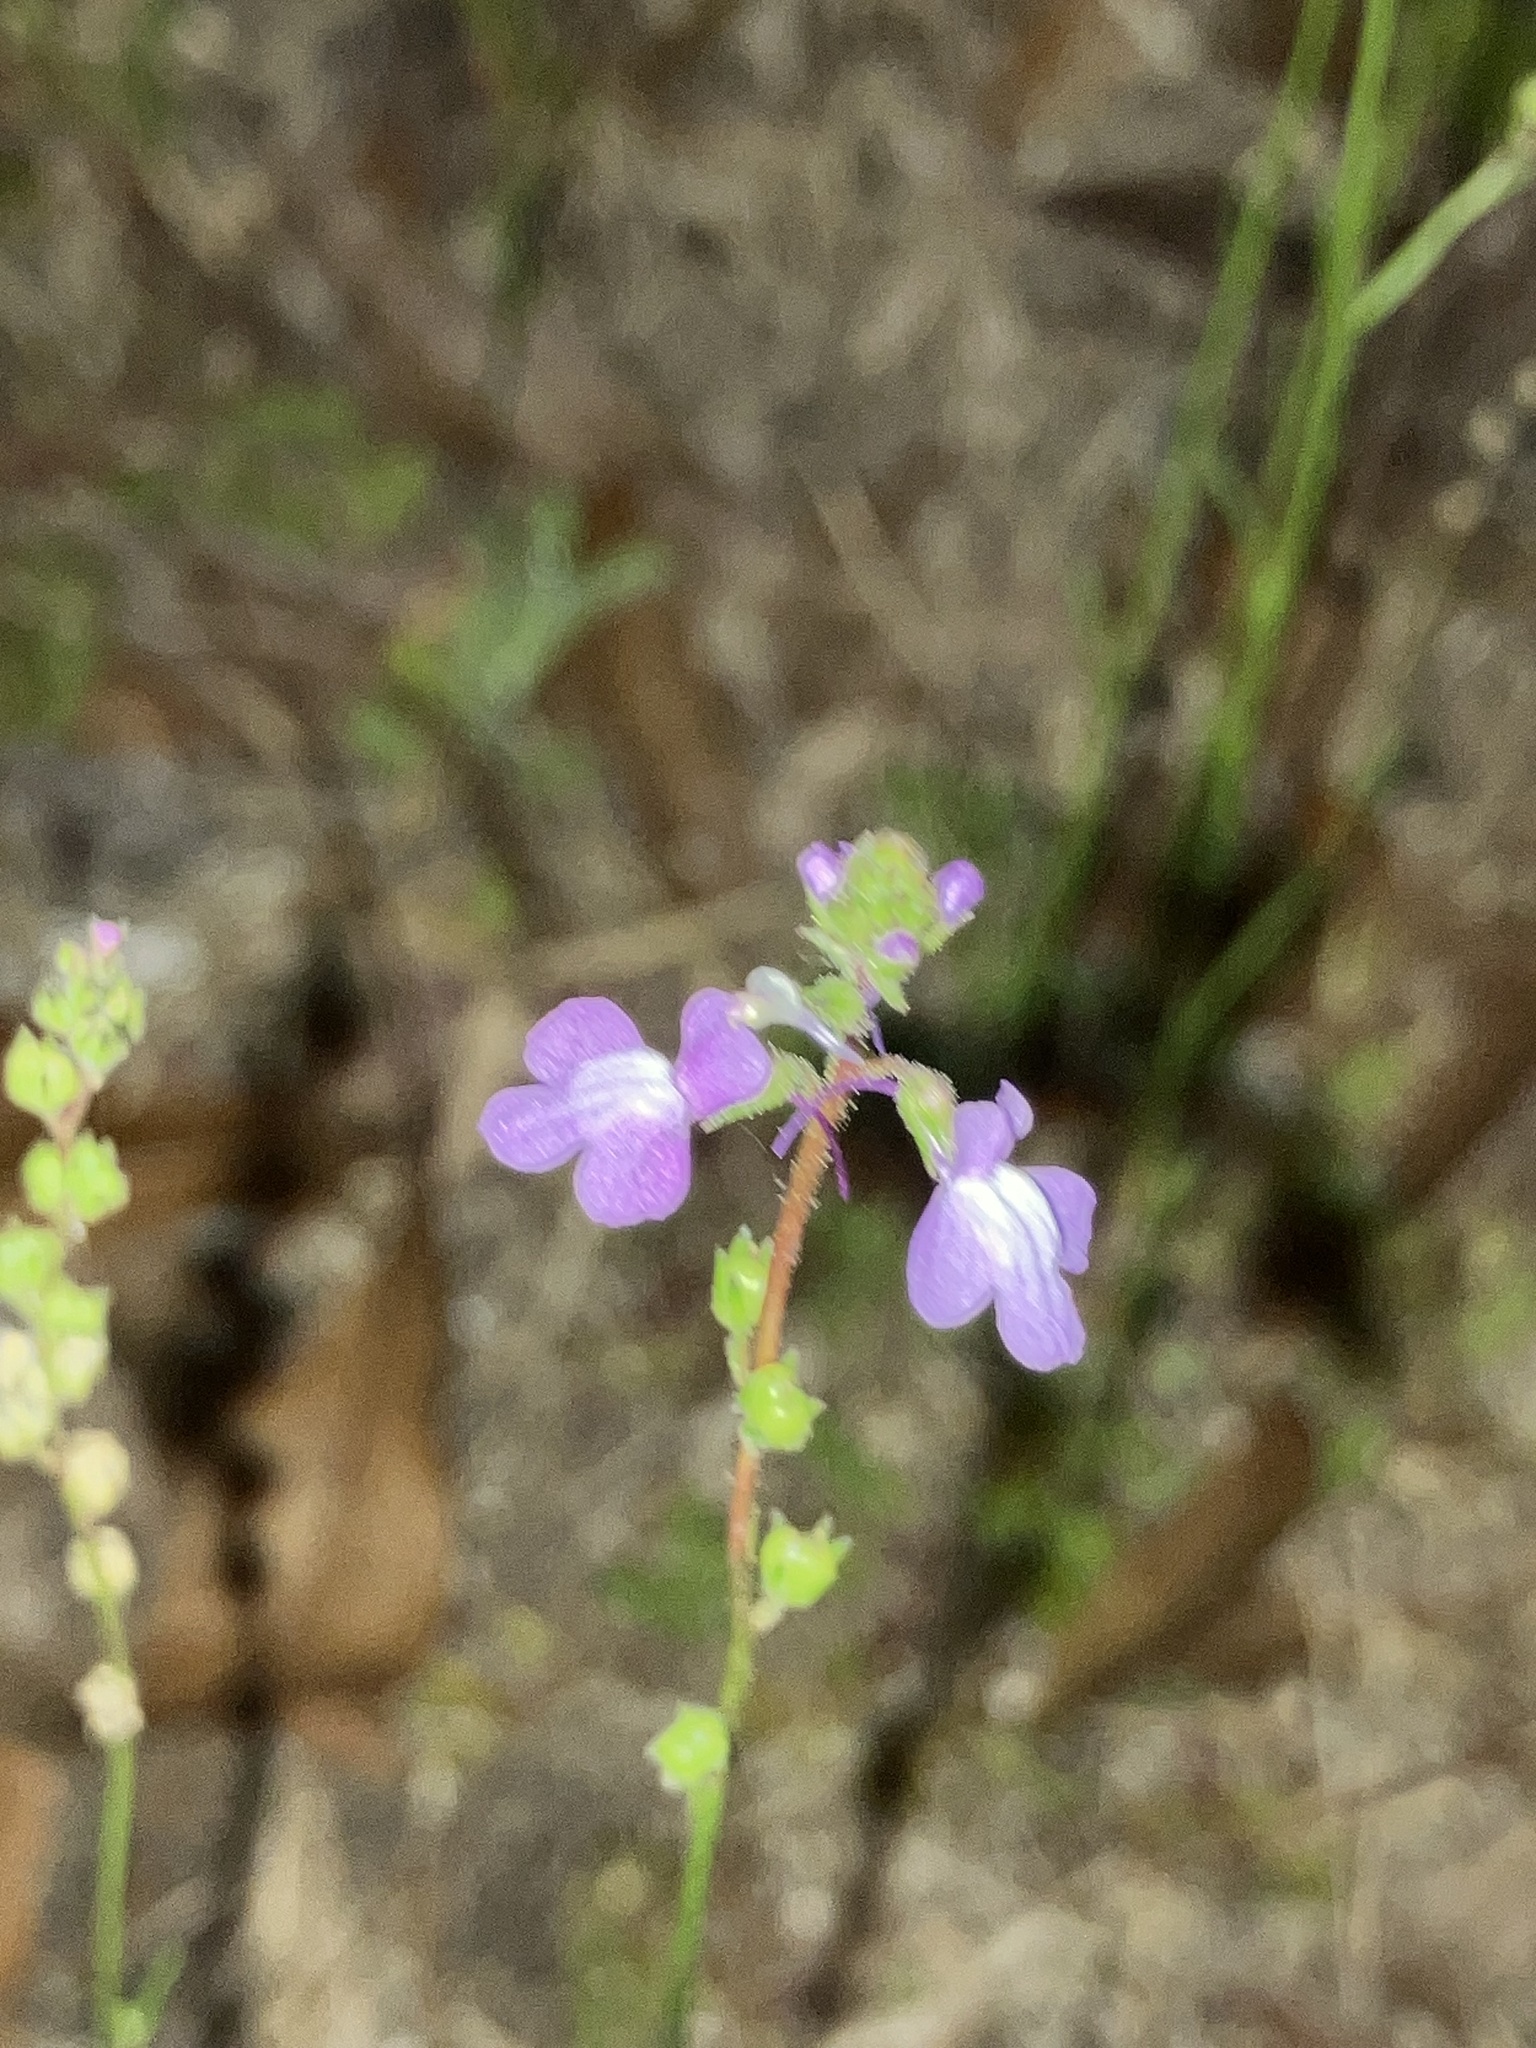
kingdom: Plantae
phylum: Tracheophyta
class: Magnoliopsida
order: Lamiales
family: Plantaginaceae
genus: Nuttallanthus
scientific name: Nuttallanthus canadensis
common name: Blue toadflax
